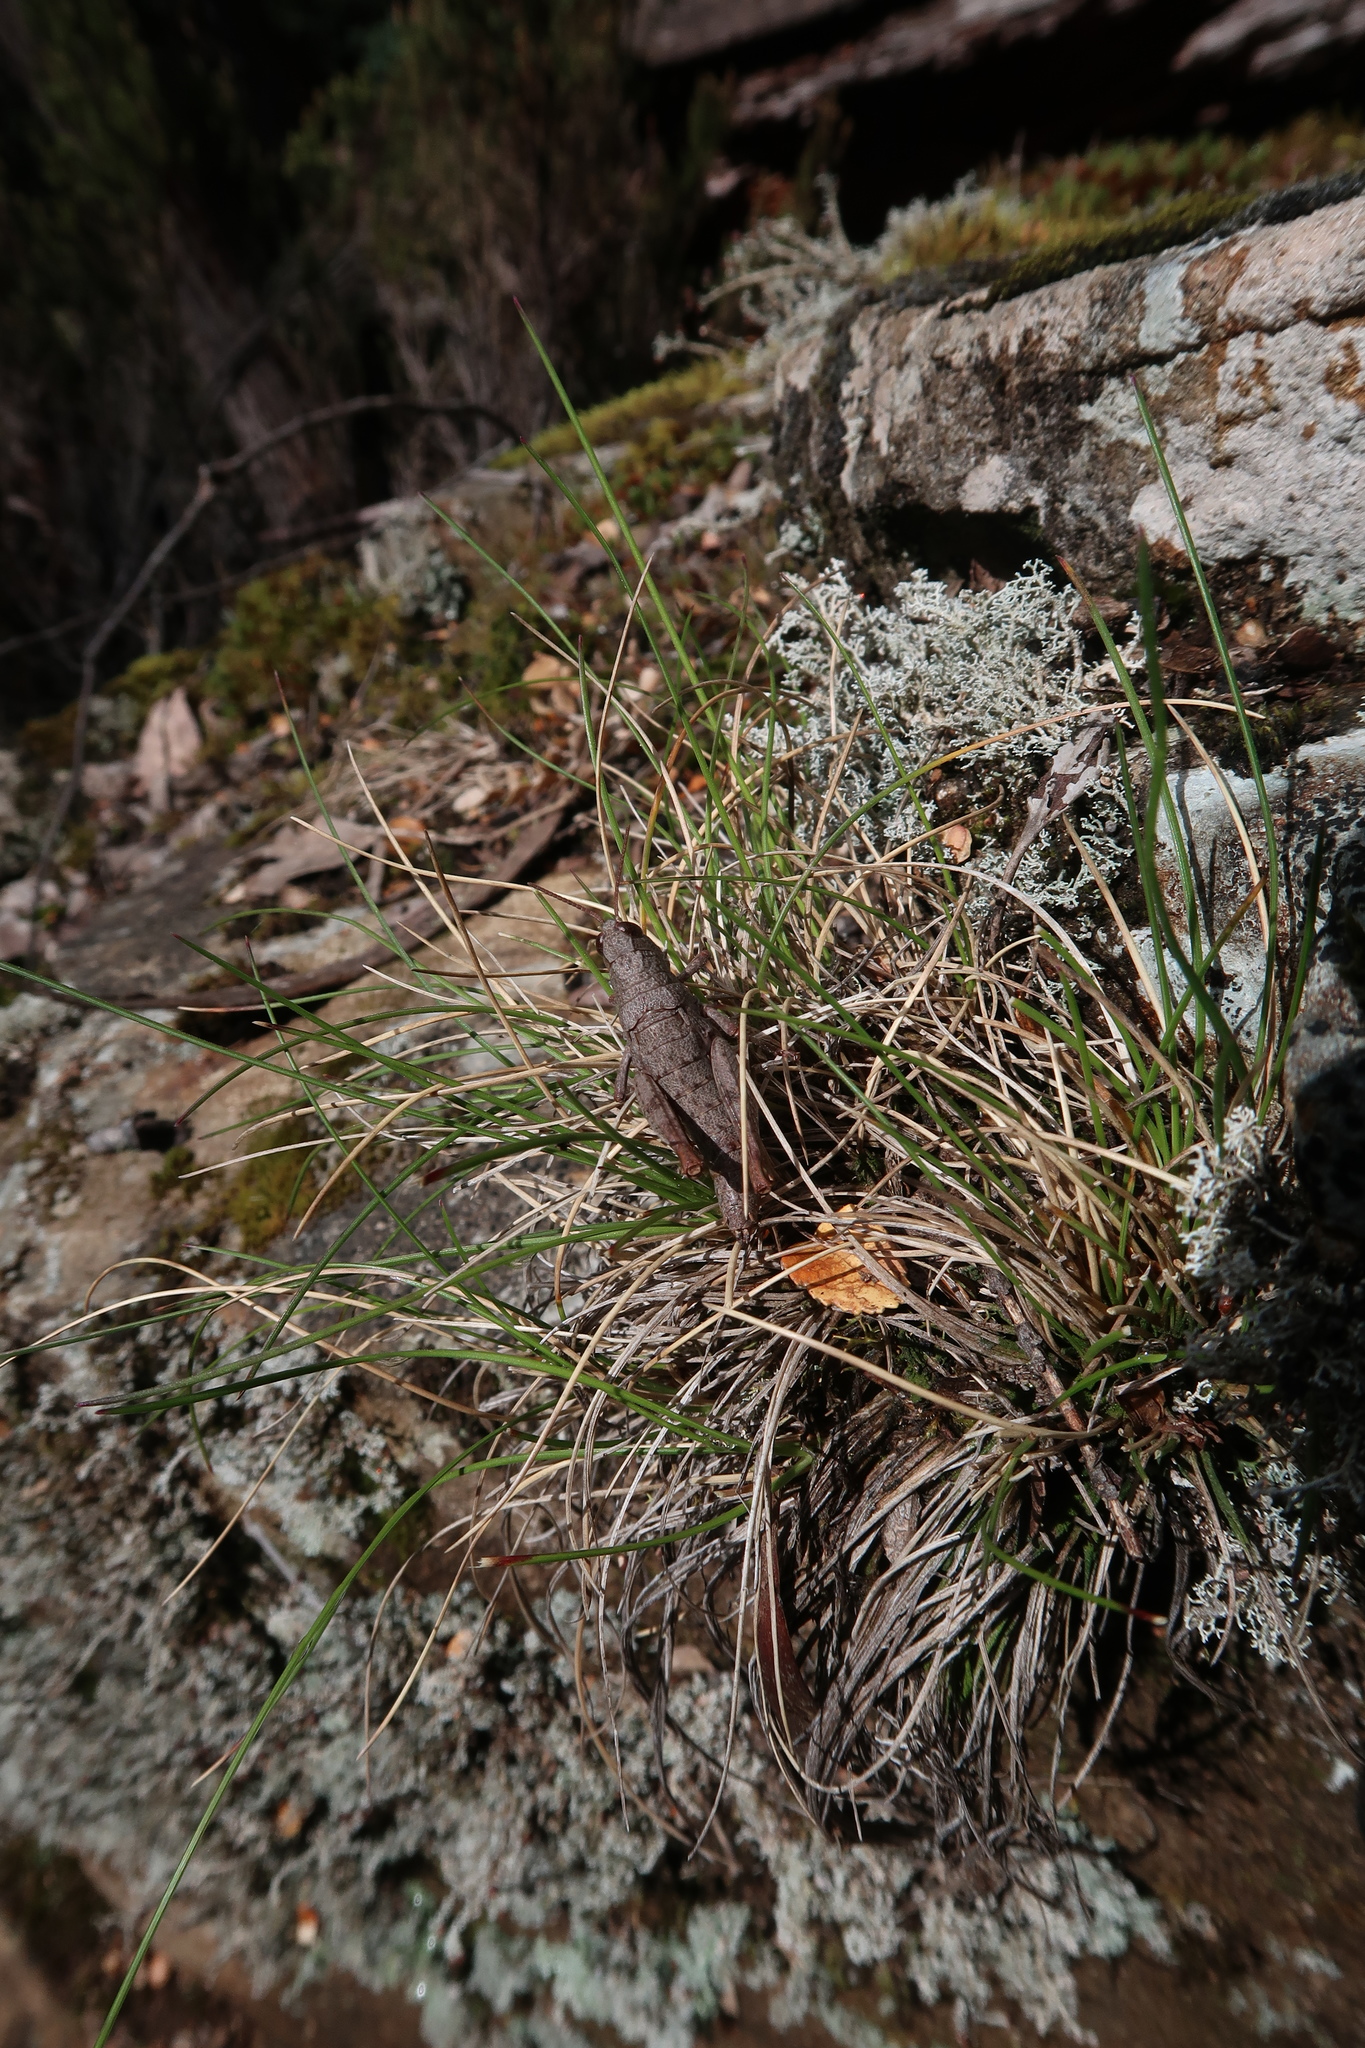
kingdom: Animalia
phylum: Arthropoda
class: Insecta
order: Orthoptera
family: Acrididae
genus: Tasmaniacris
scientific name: Tasmaniacris tasmaniensis
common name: Tasmanian grasshopper
